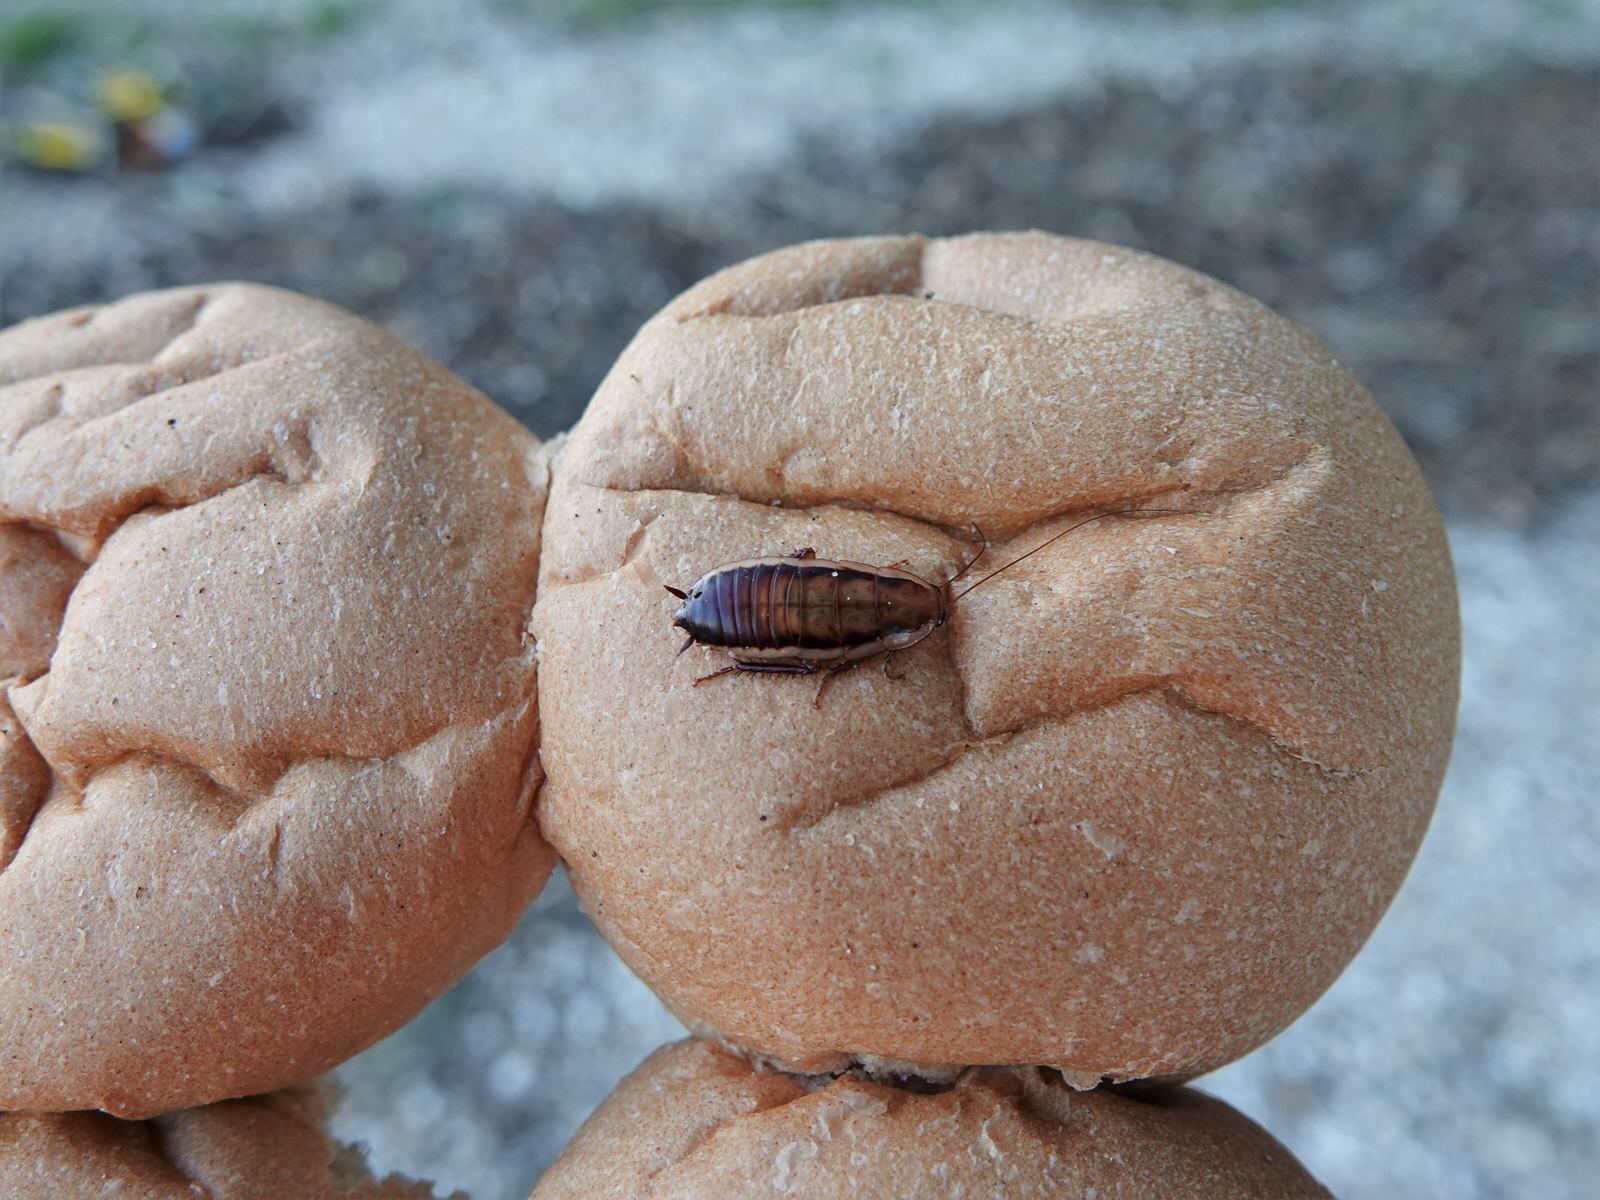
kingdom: Animalia
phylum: Arthropoda
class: Insecta
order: Blattodea
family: Blattidae
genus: Drymaplaneta
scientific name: Drymaplaneta heydeniana
